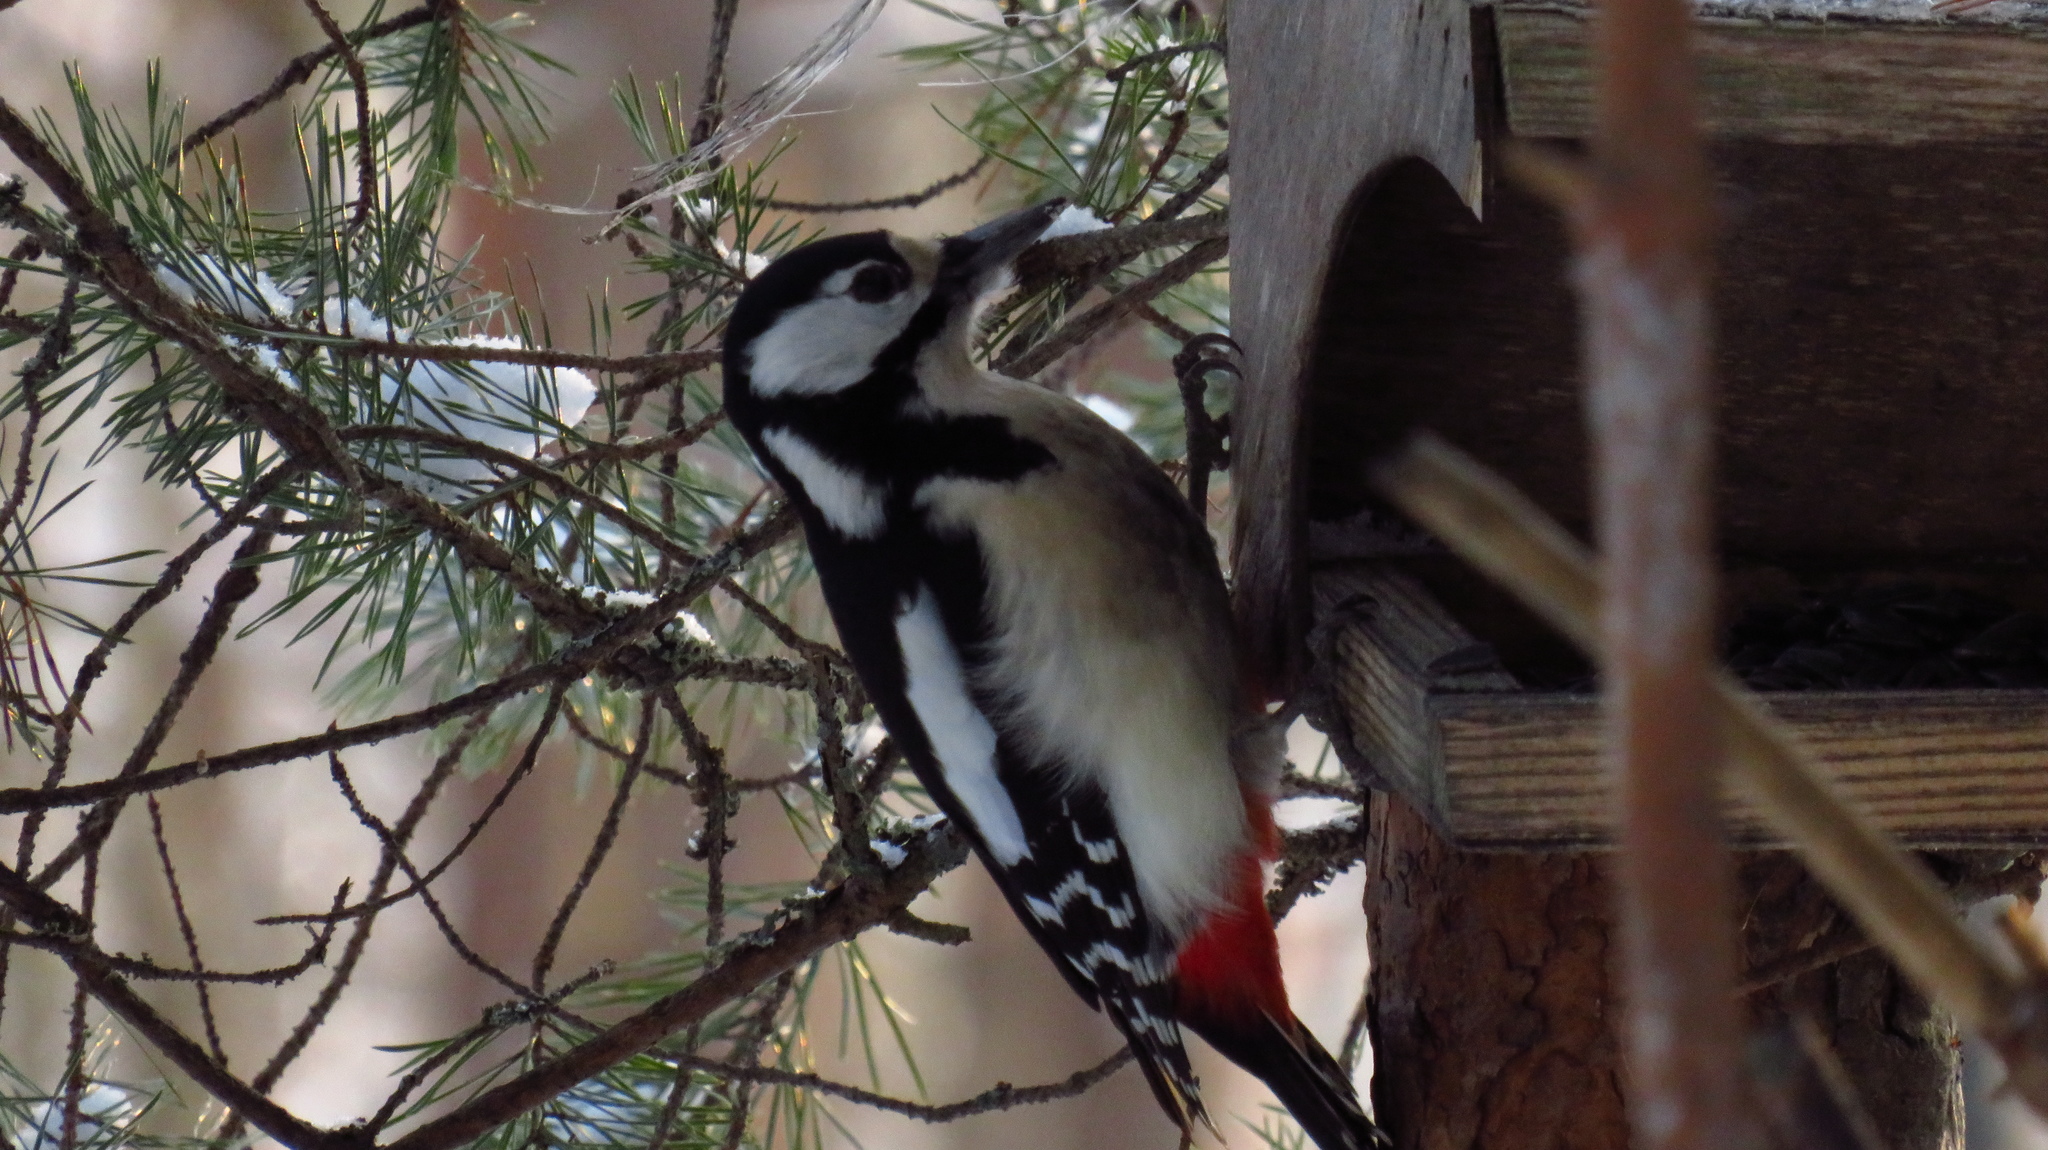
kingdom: Animalia
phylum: Chordata
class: Aves
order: Piciformes
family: Picidae
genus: Dendrocopos
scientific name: Dendrocopos major
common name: Great spotted woodpecker
